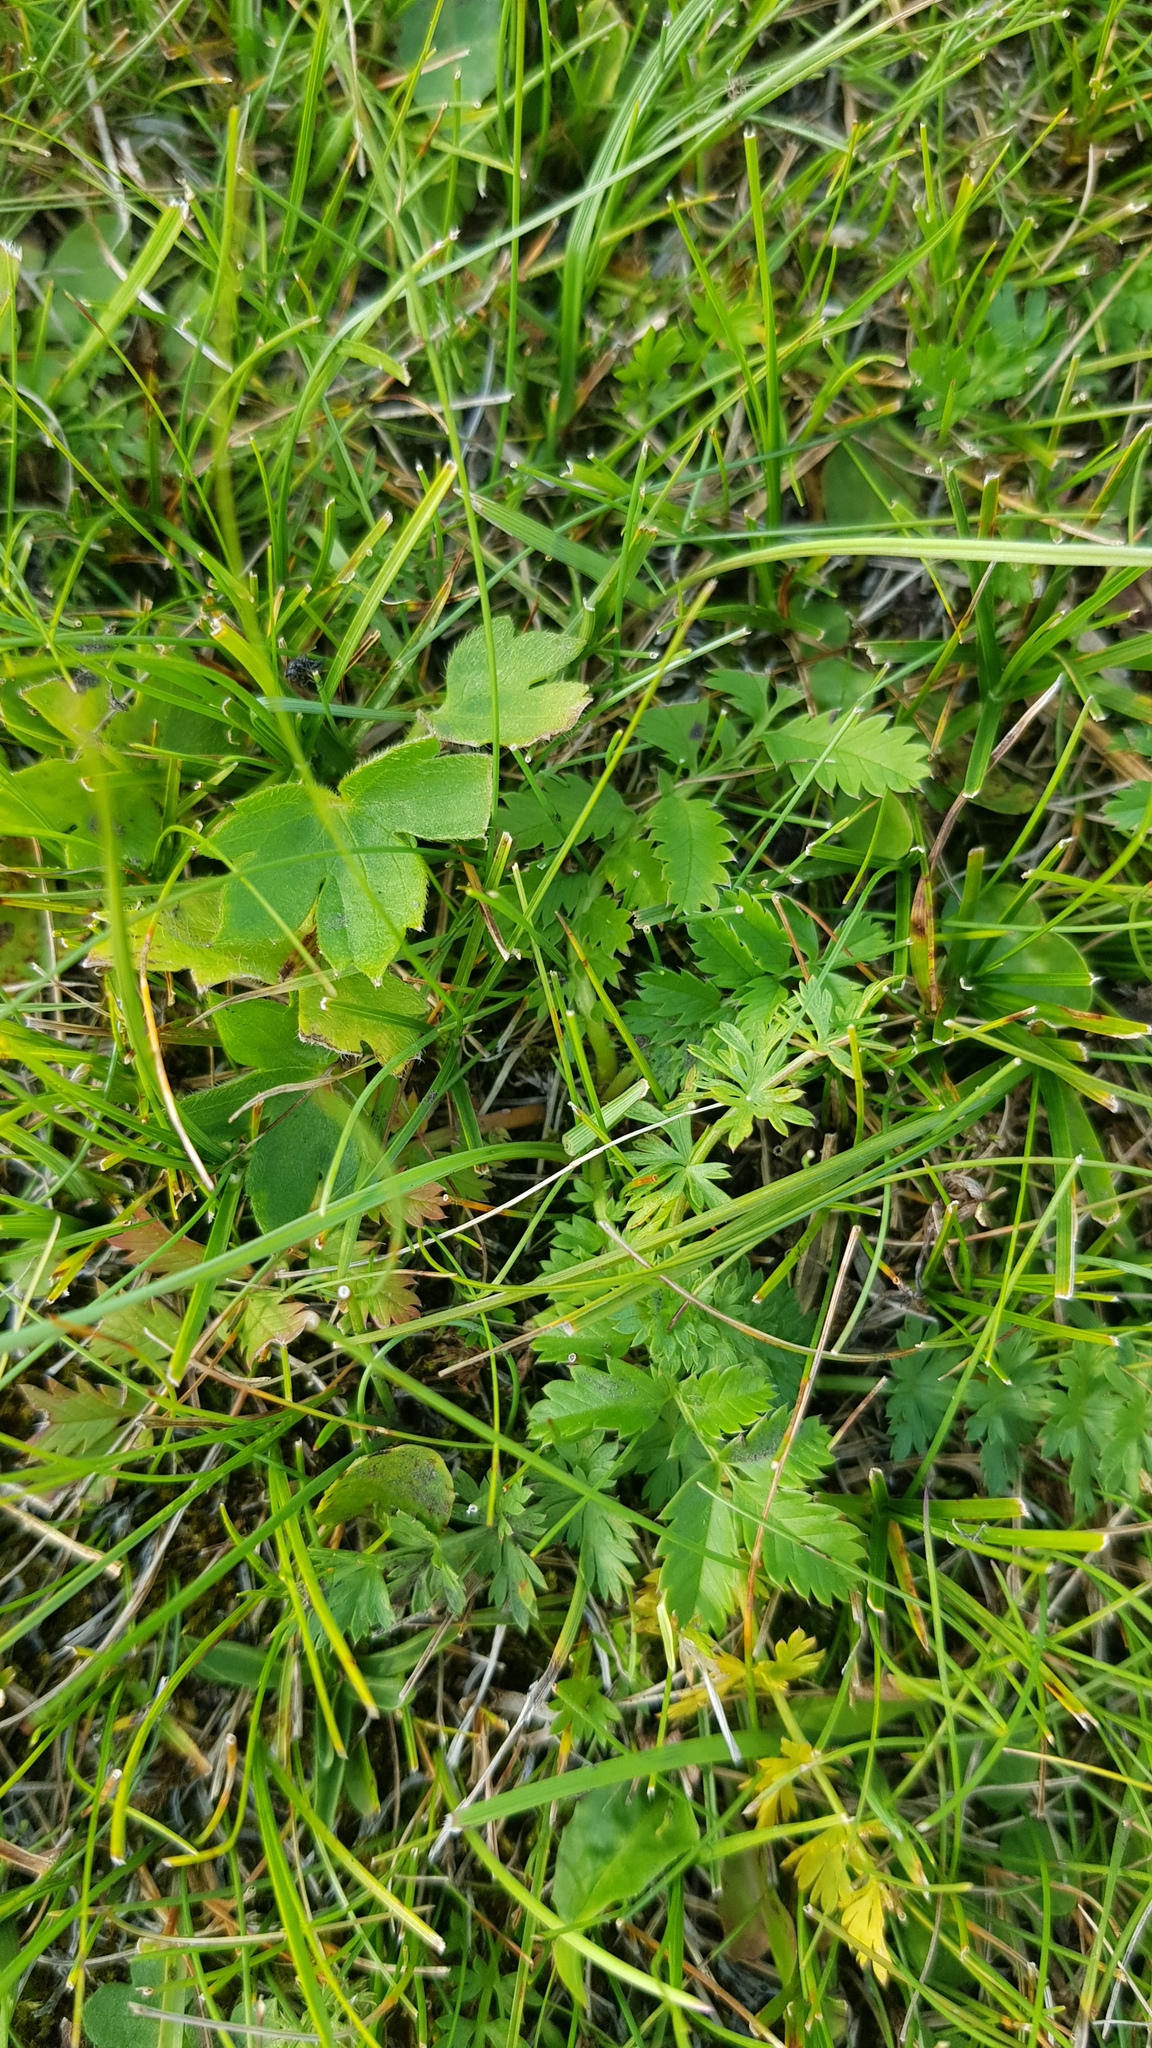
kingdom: Plantae
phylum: Tracheophyta
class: Magnoliopsida
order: Rosales
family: Rosaceae
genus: Argentina
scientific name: Argentina anserina
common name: Common silverweed
